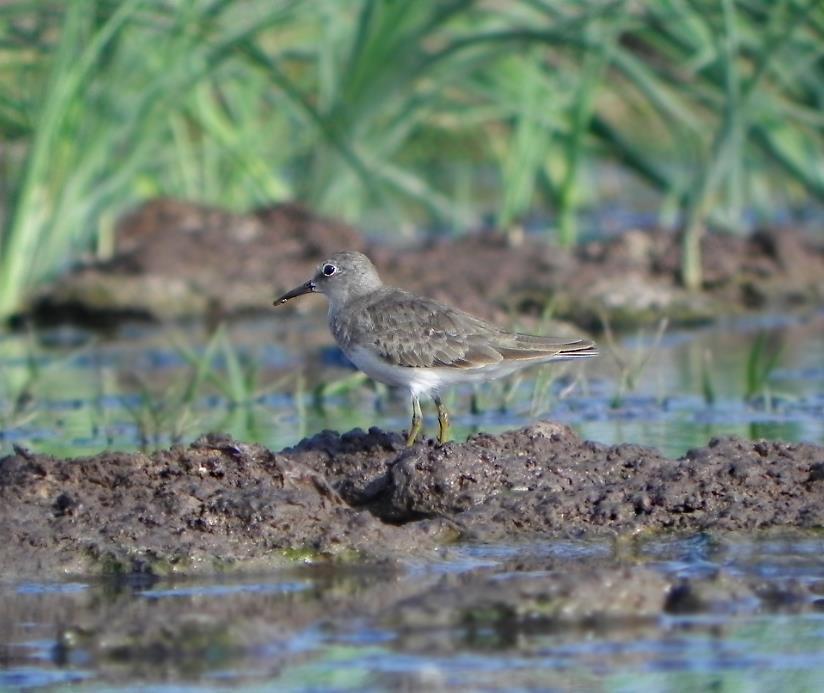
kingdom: Animalia
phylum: Chordata
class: Aves
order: Charadriiformes
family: Scolopacidae
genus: Calidris
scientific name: Calidris temminckii
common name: Temminck's stint
